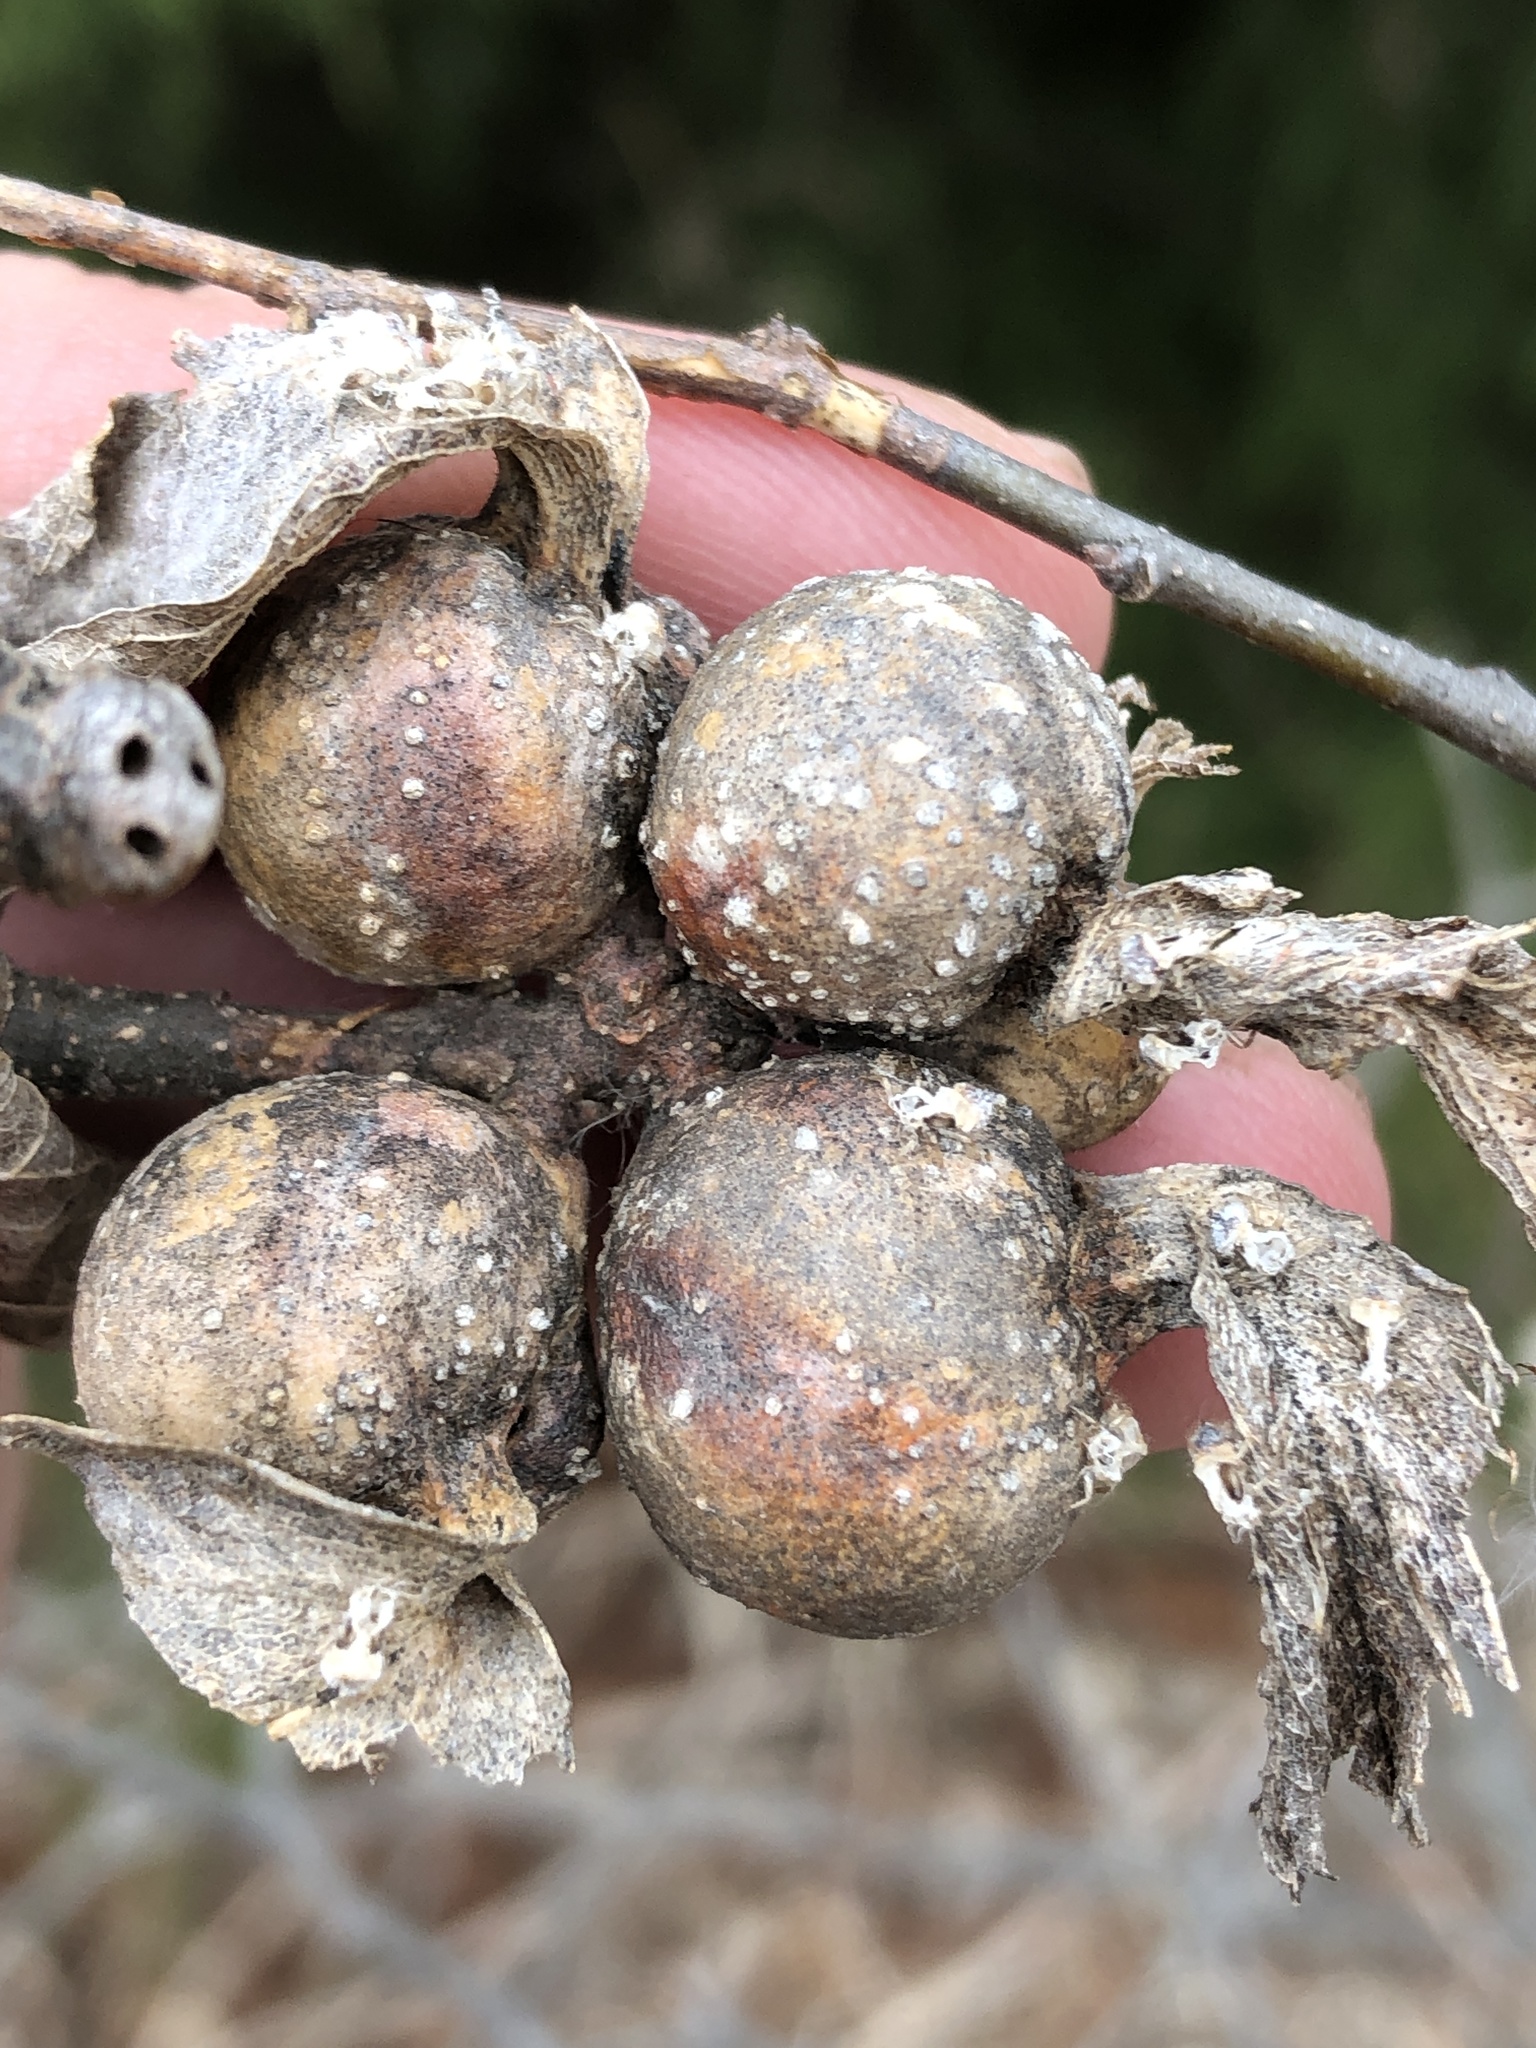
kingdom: Animalia
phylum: Arthropoda
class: Insecta
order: Hemiptera
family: Aphalaridae
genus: Pachypsylla
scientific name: Pachypsylla venusta
